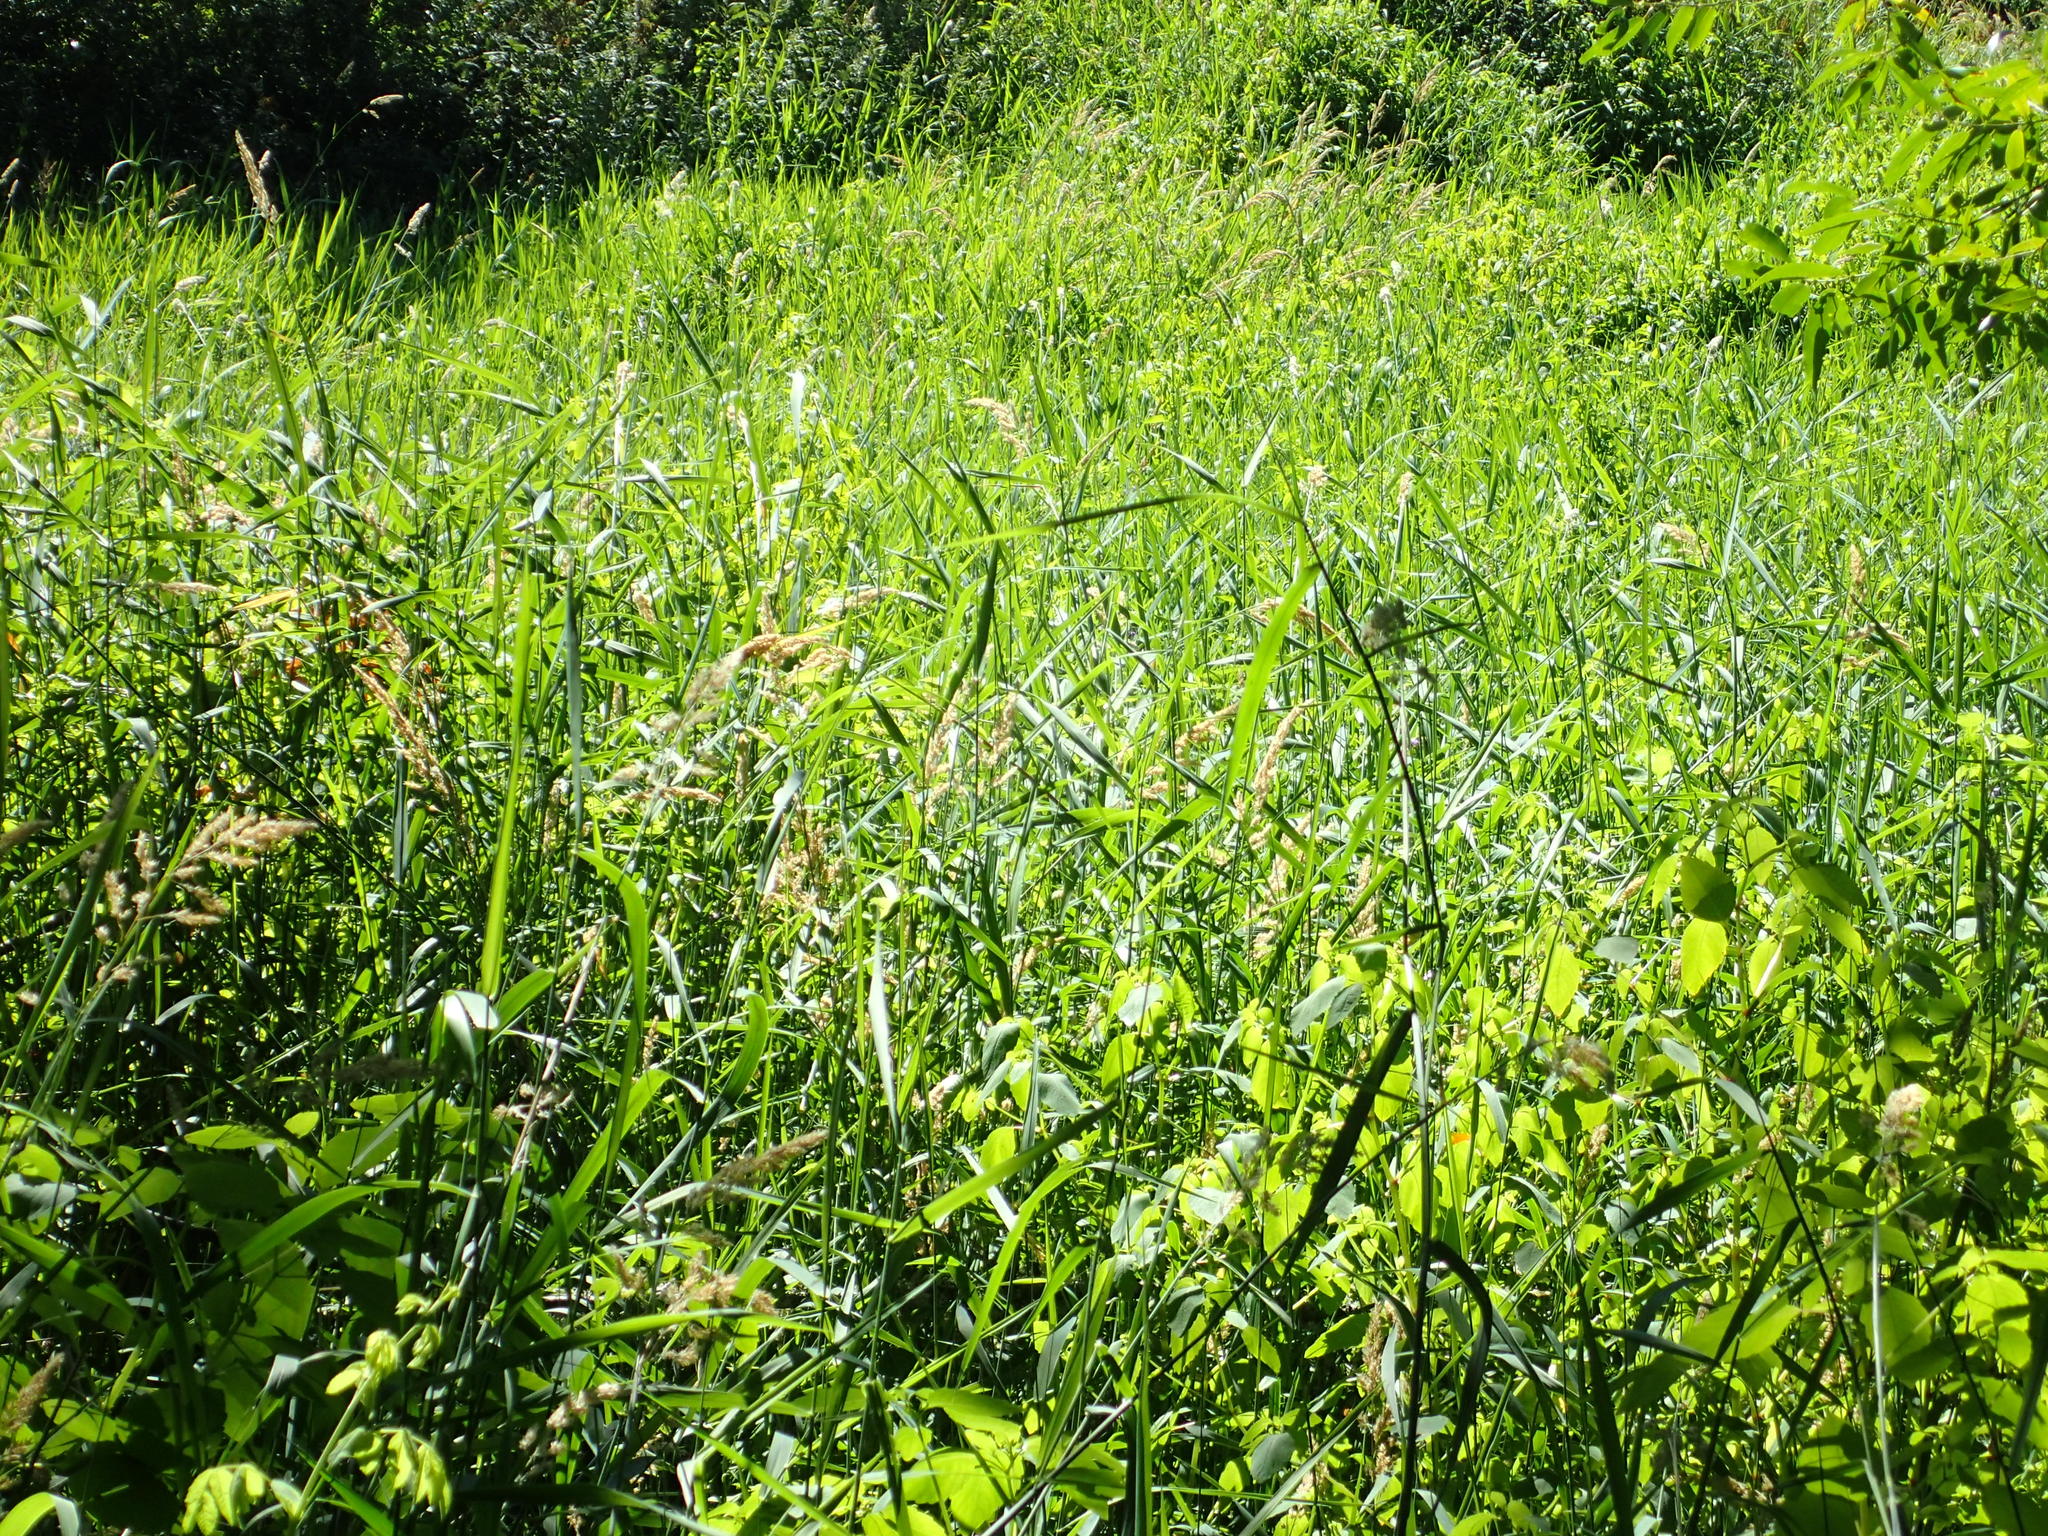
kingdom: Plantae
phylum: Tracheophyta
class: Liliopsida
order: Poales
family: Poaceae
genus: Phalaris
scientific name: Phalaris arundinacea
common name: Reed canary-grass
